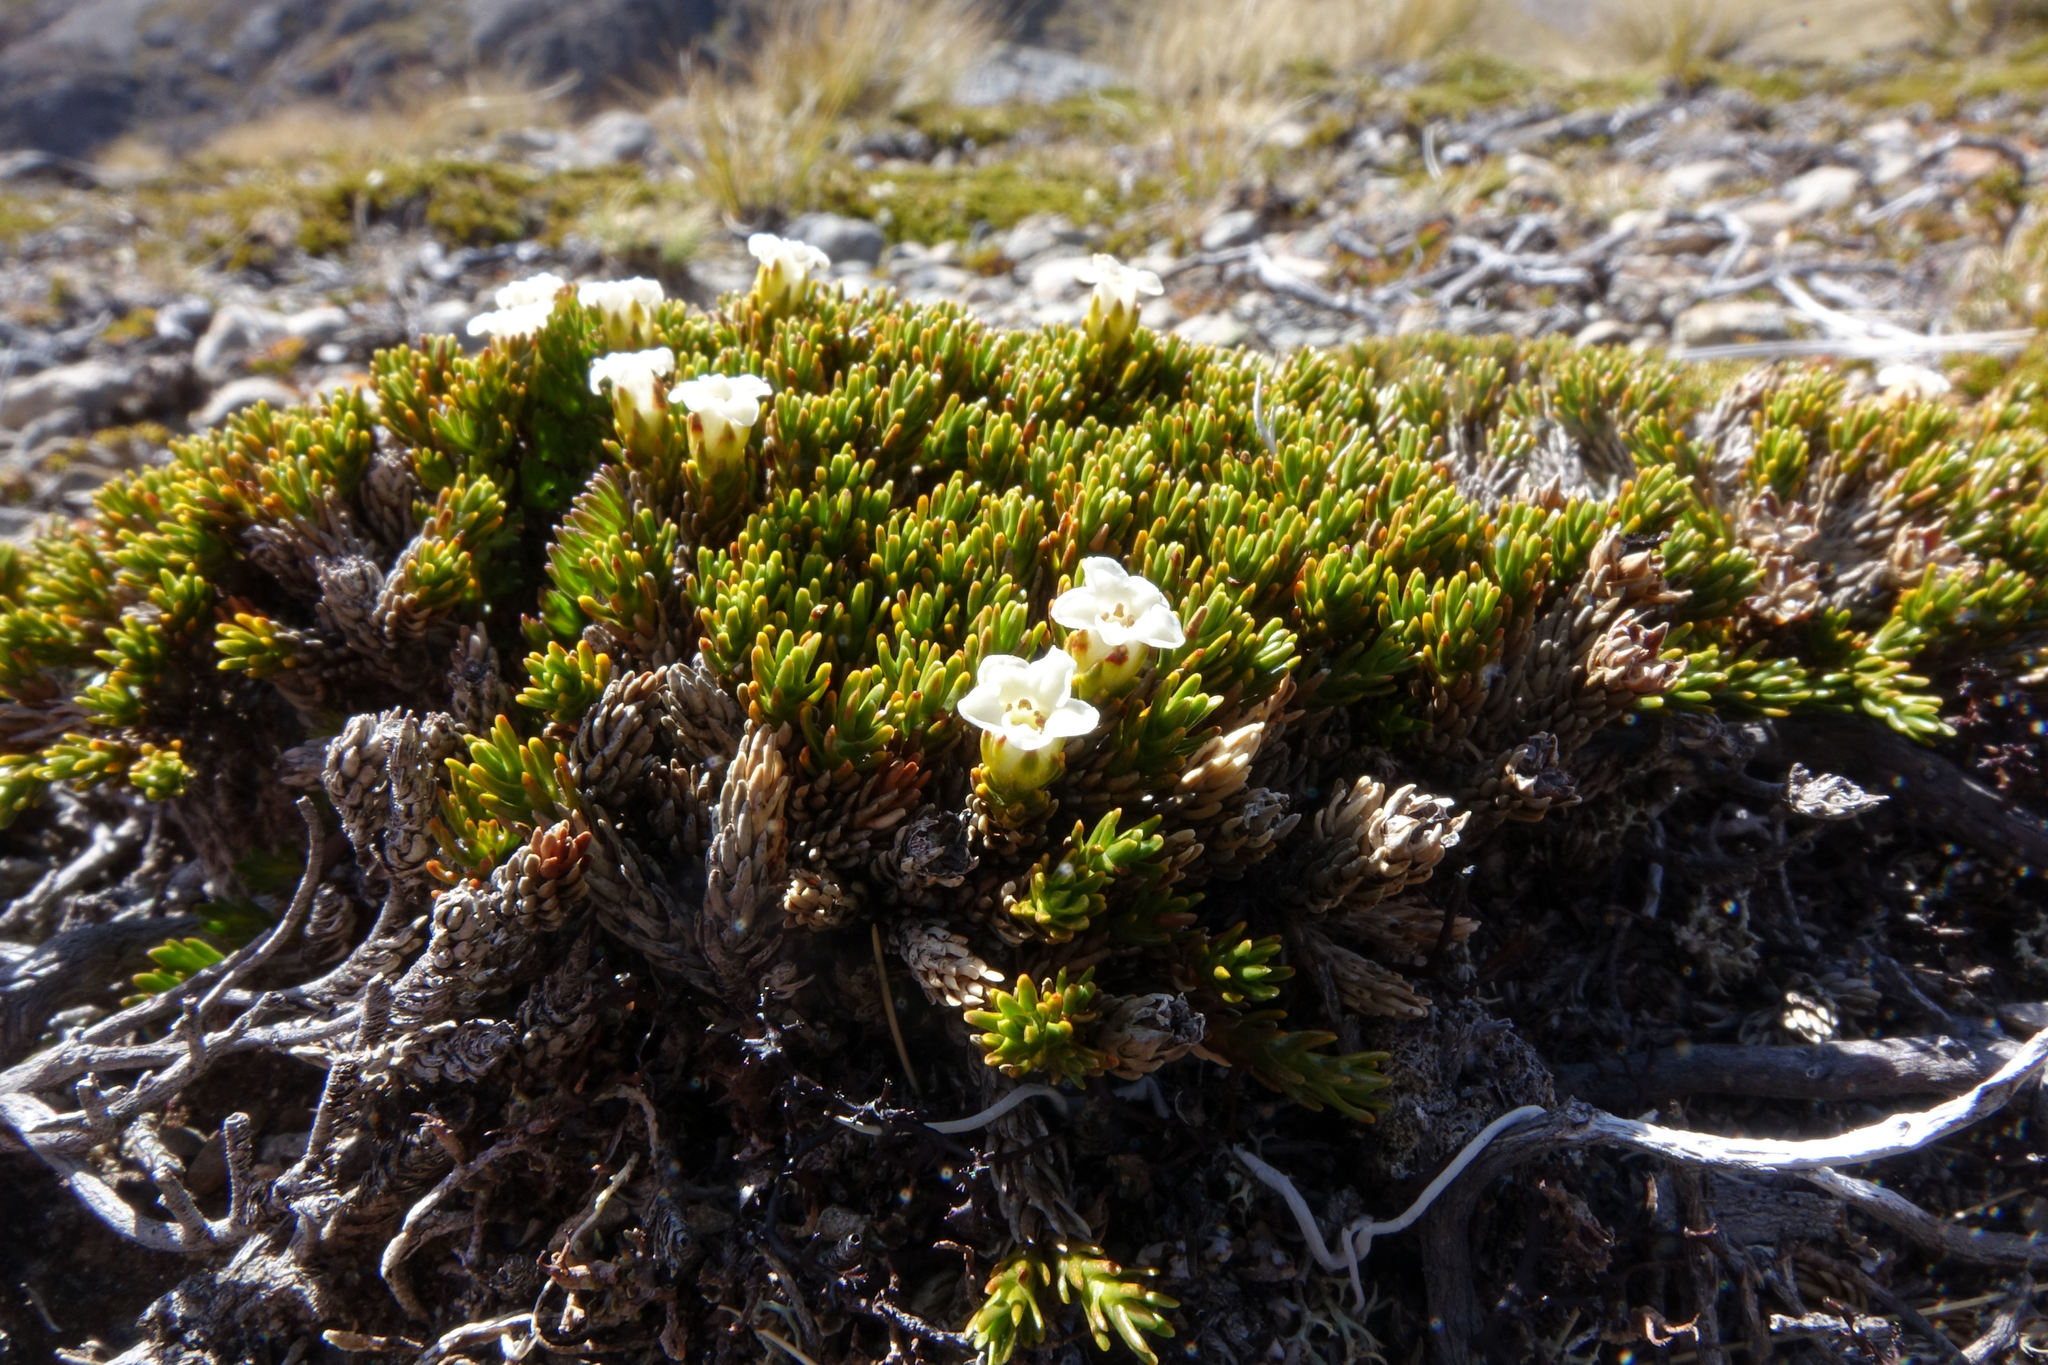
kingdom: Plantae
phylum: Tracheophyta
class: Magnoliopsida
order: Ericales
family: Ericaceae
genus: Dracophyllum
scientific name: Dracophyllum muscoides
